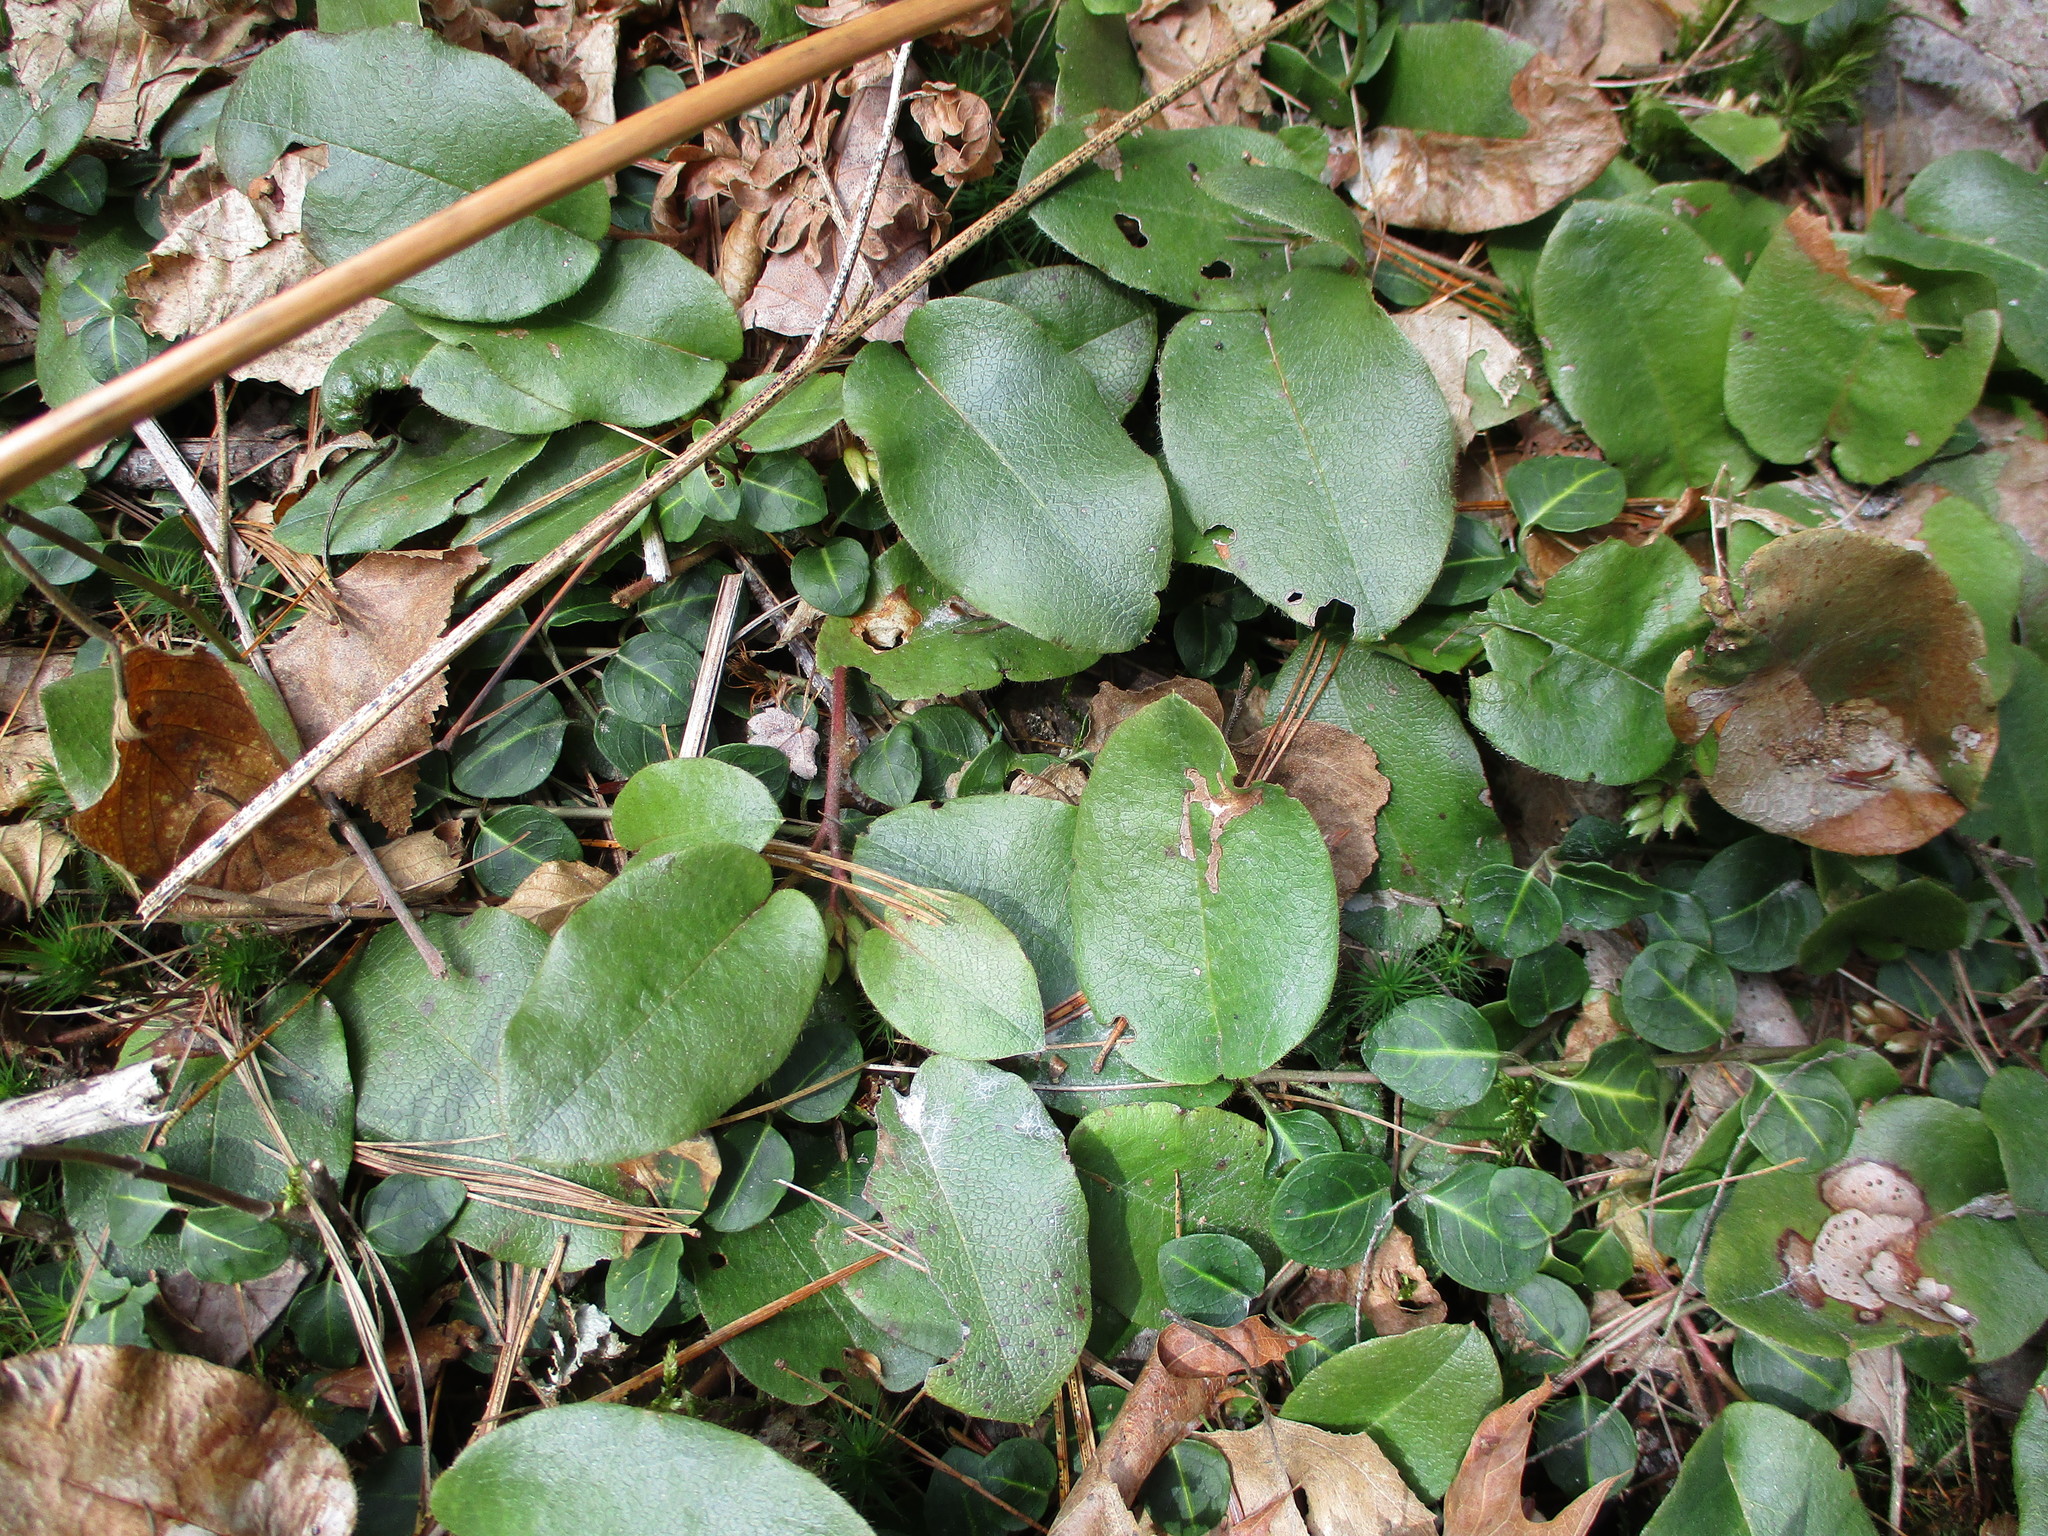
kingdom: Plantae
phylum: Tracheophyta
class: Magnoliopsida
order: Ericales
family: Ericaceae
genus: Epigaea
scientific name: Epigaea repens
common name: Gravelroot
